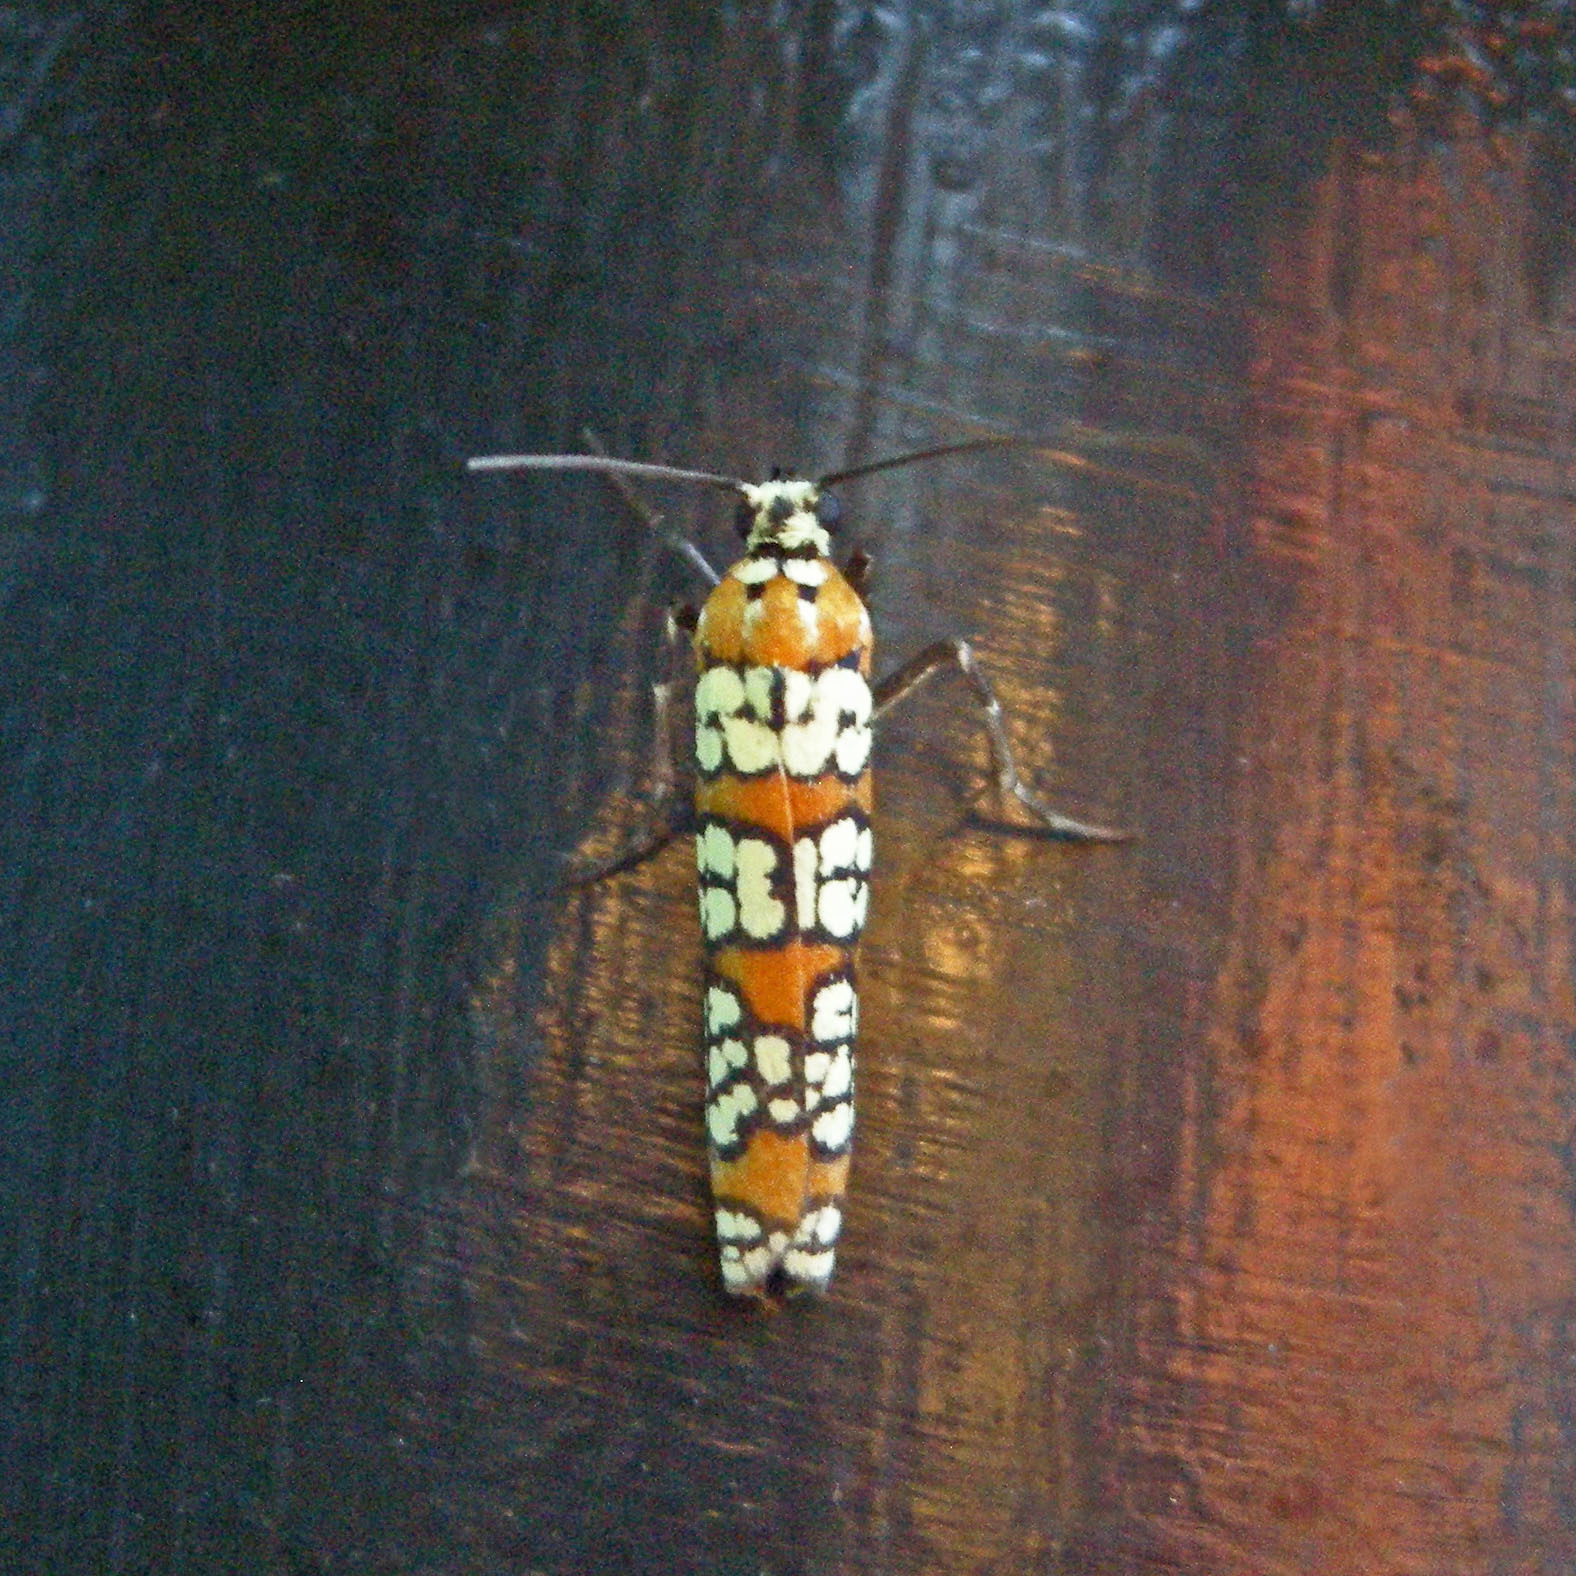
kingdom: Animalia
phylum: Arthropoda
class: Insecta
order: Lepidoptera
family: Attevidae
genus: Atteva
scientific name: Atteva punctella
